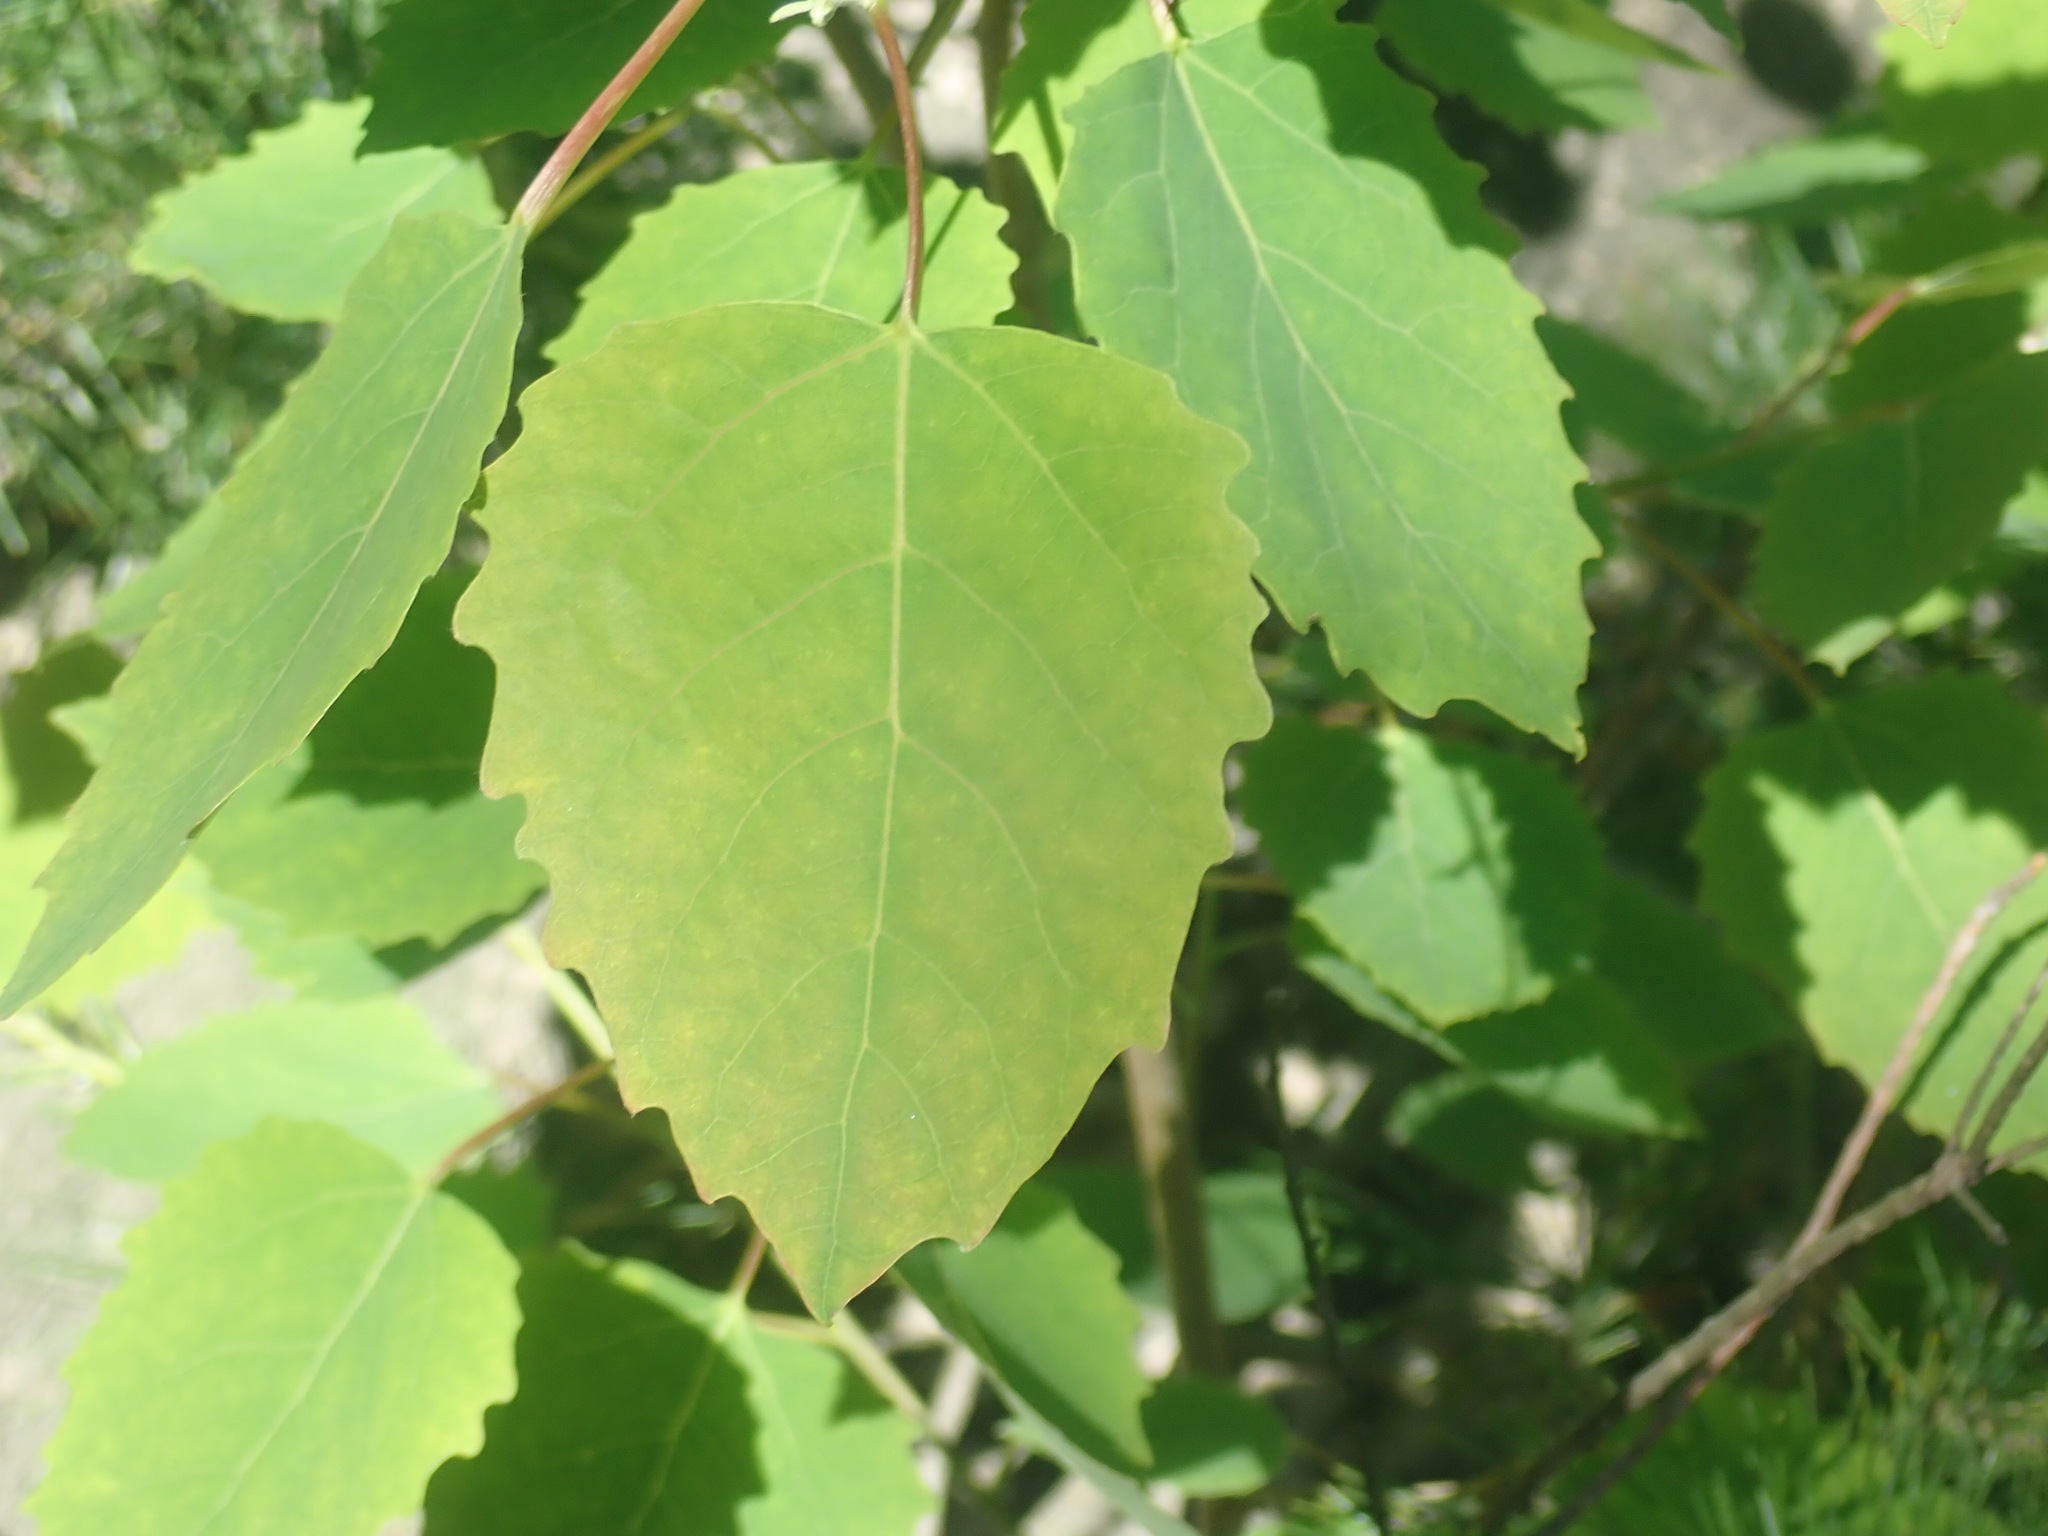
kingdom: Plantae
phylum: Tracheophyta
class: Magnoliopsida
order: Malpighiales
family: Salicaceae
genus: Populus
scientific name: Populus grandidentata
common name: Bigtooth aspen
